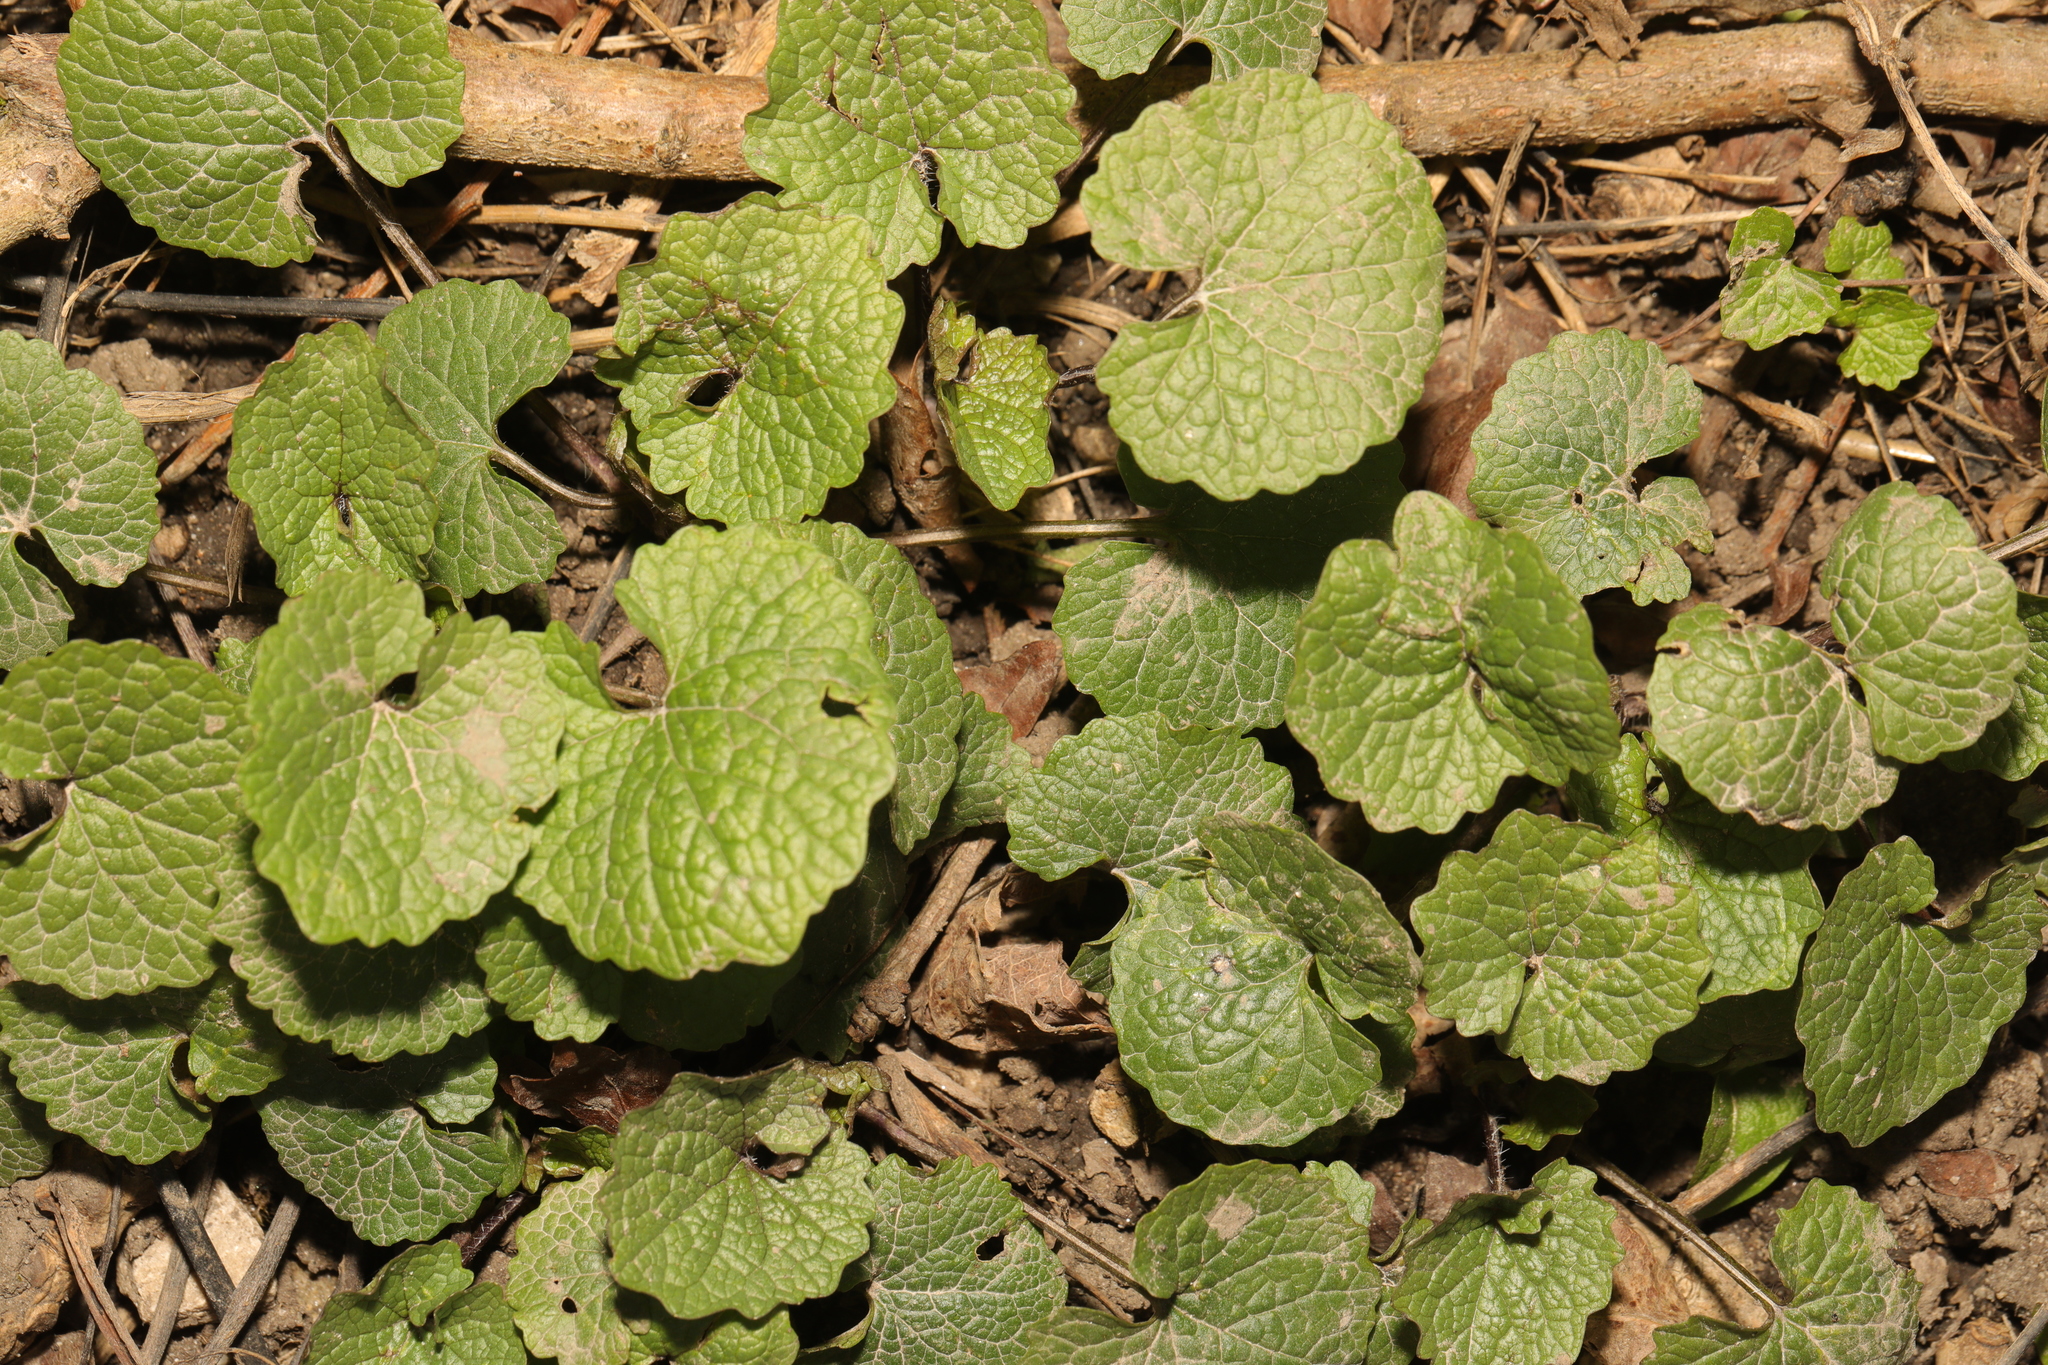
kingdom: Plantae
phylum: Tracheophyta
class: Magnoliopsida
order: Brassicales
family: Brassicaceae
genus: Alliaria
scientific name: Alliaria petiolata
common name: Garlic mustard
